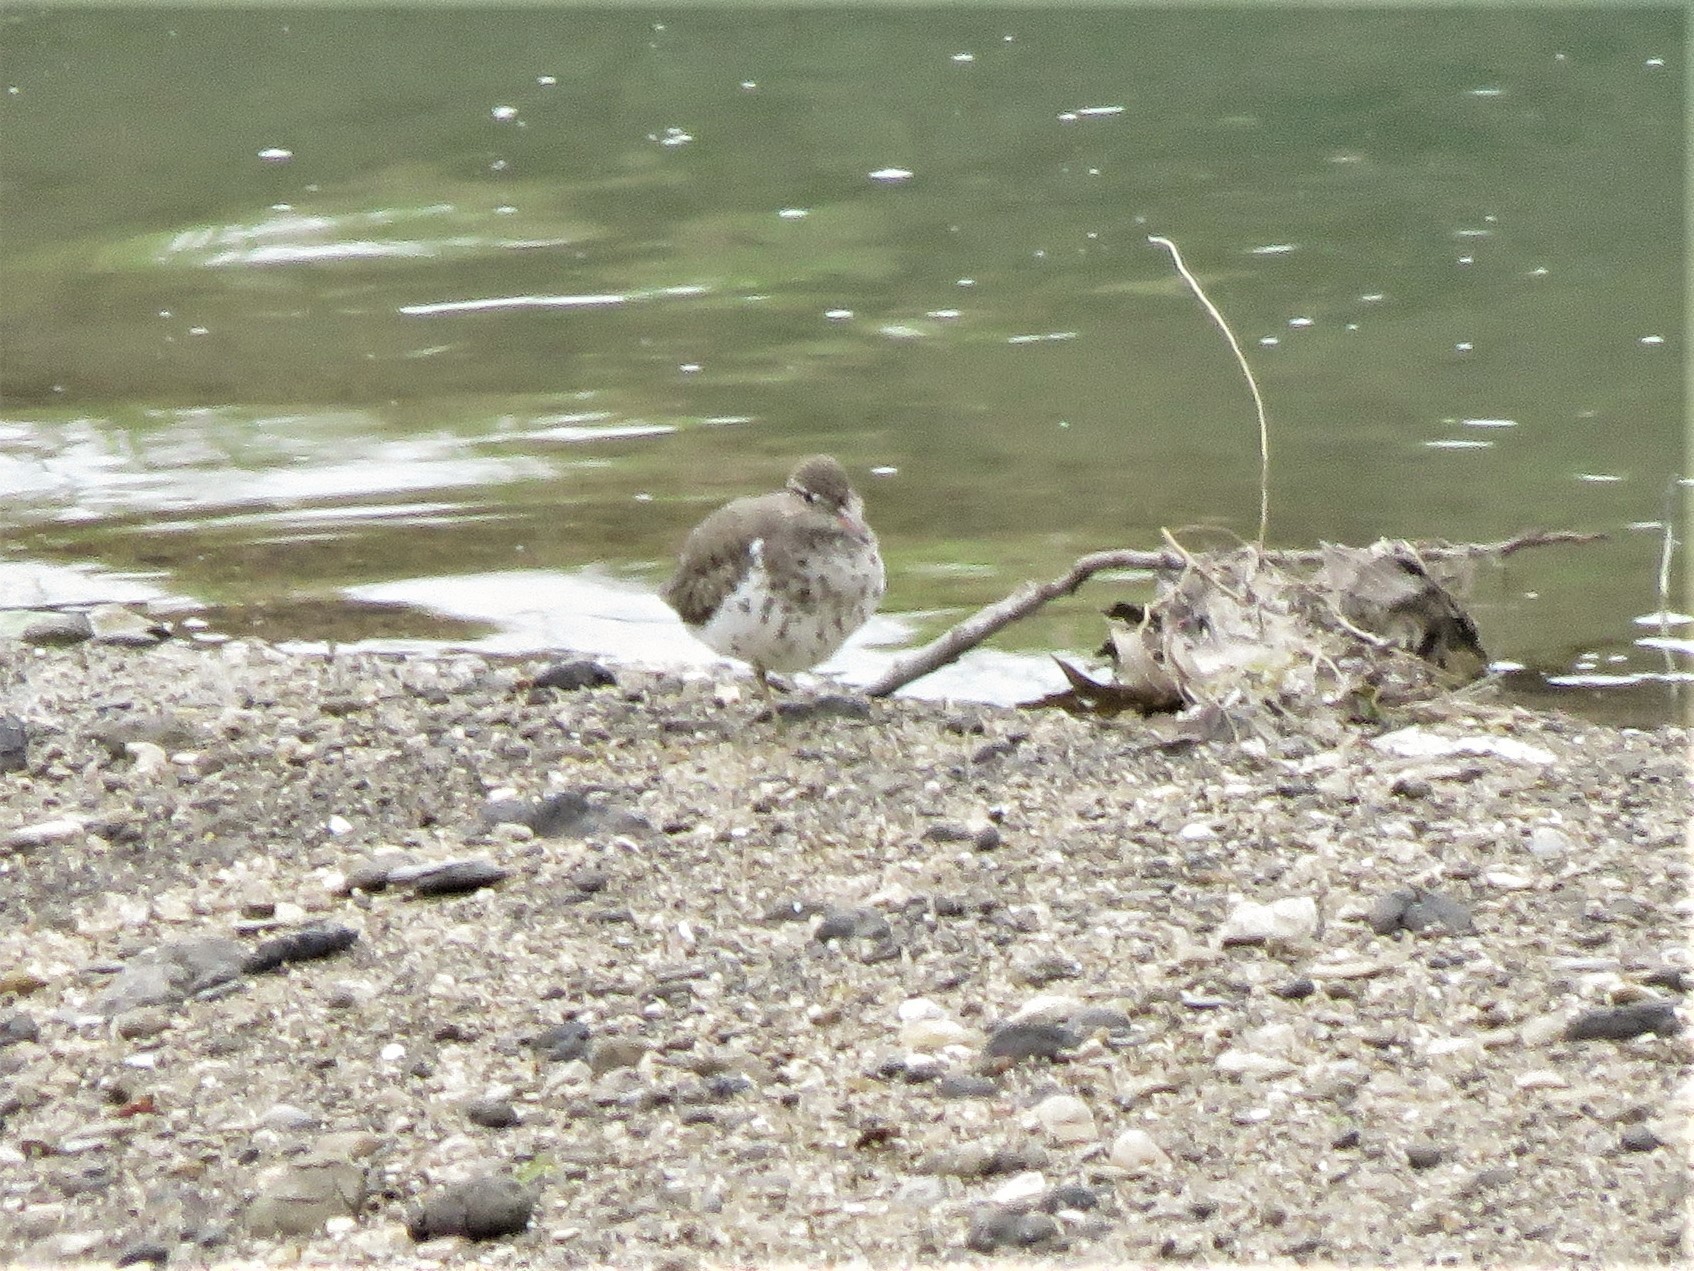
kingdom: Animalia
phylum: Chordata
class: Aves
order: Charadriiformes
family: Scolopacidae
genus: Actitis
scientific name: Actitis macularius
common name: Spotted sandpiper
